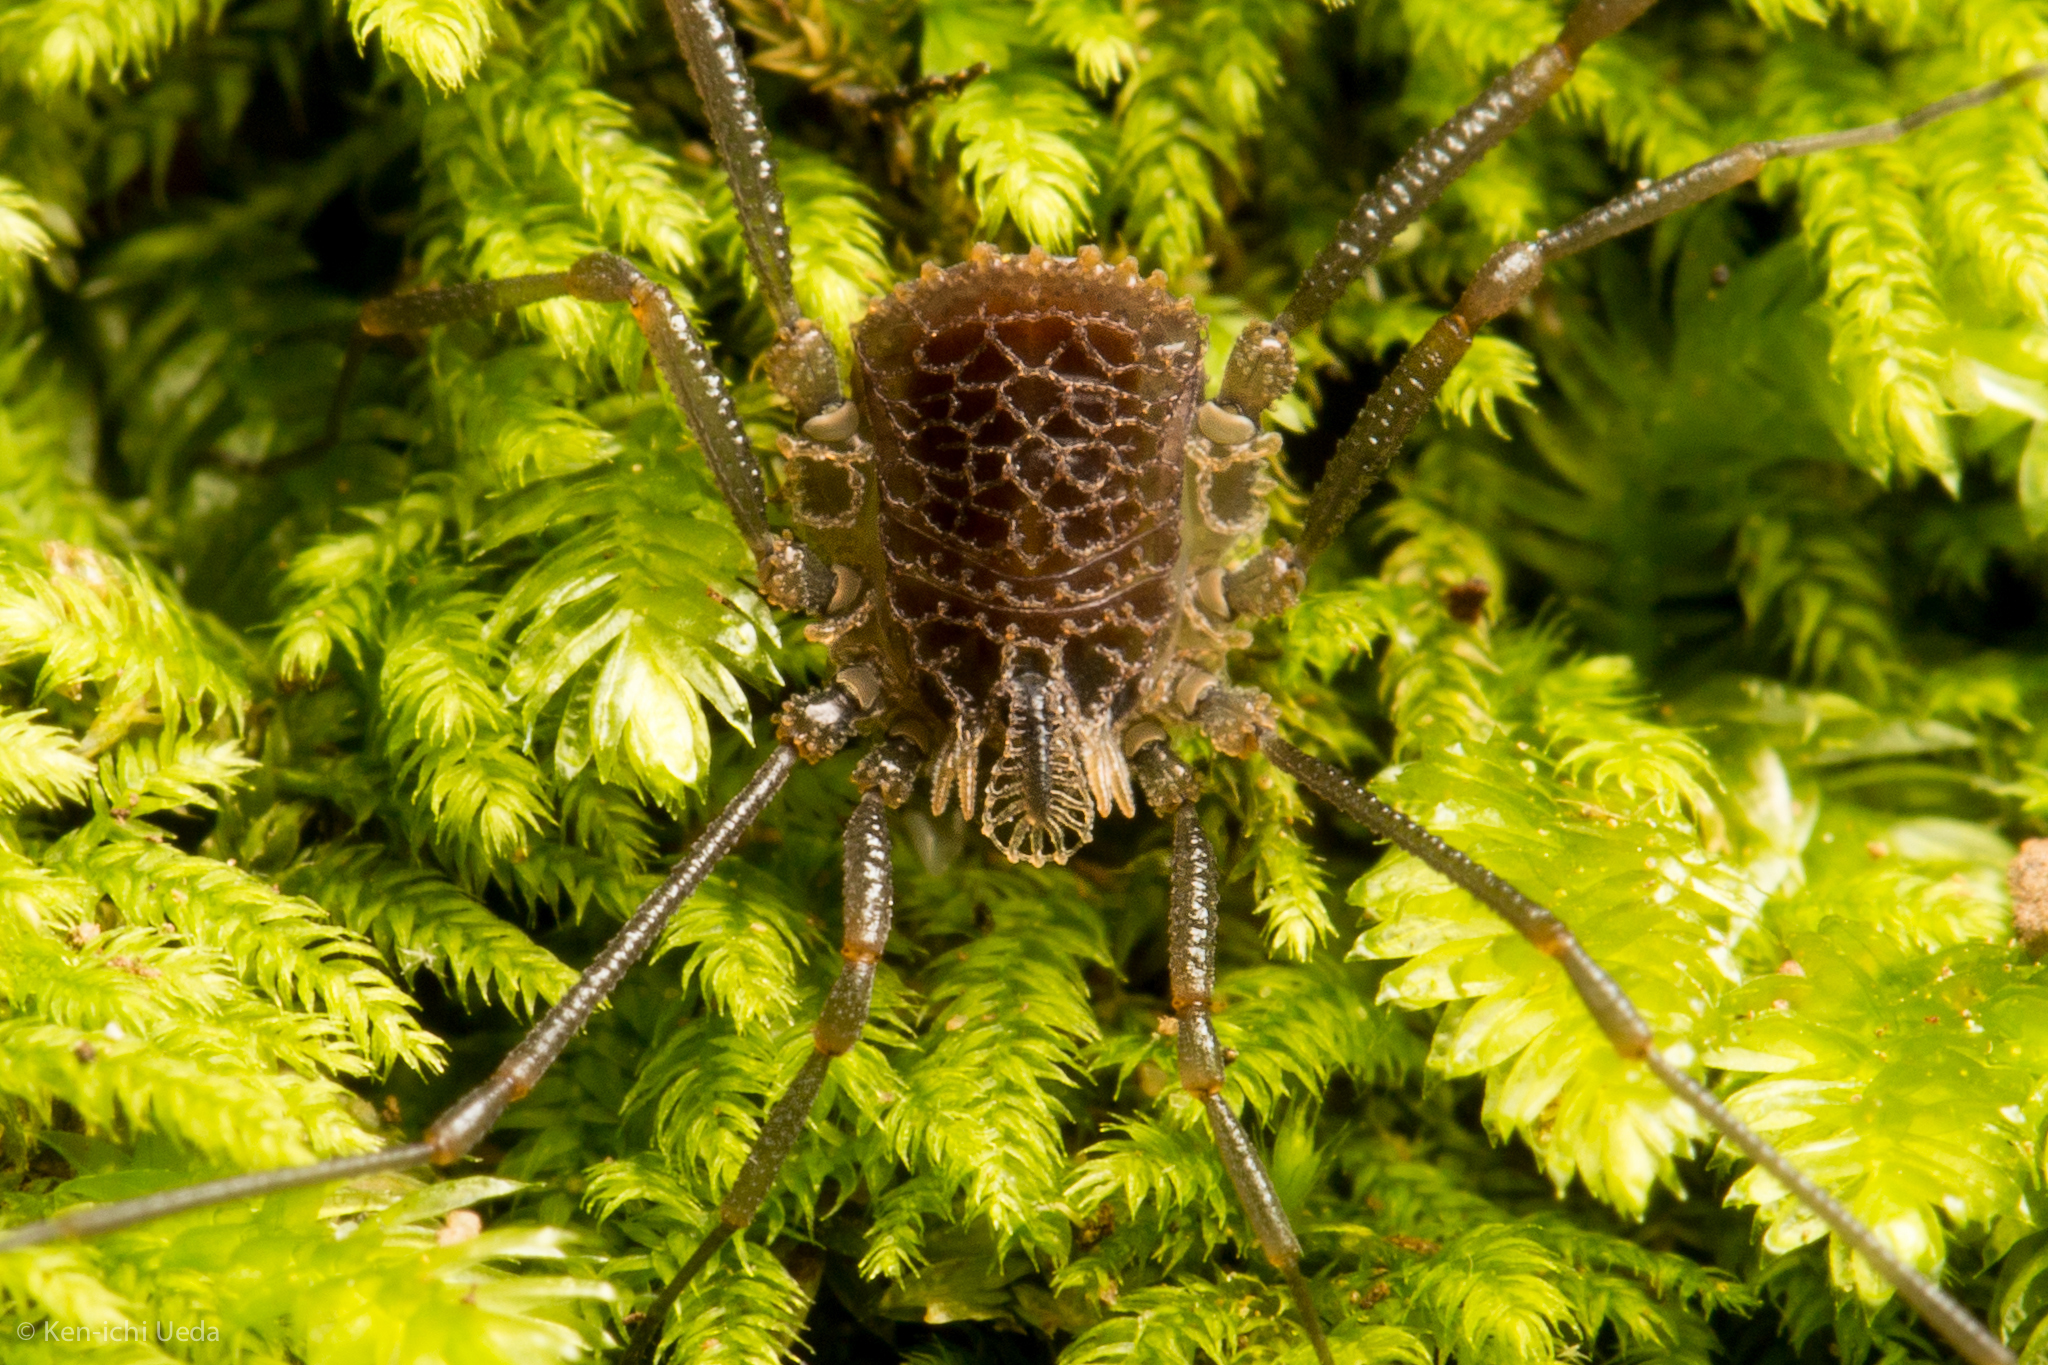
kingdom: Animalia
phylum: Arthropoda
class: Arachnida
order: Opiliones
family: Nemastomatidae
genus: Ortholasma
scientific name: Ortholasma rugosum
